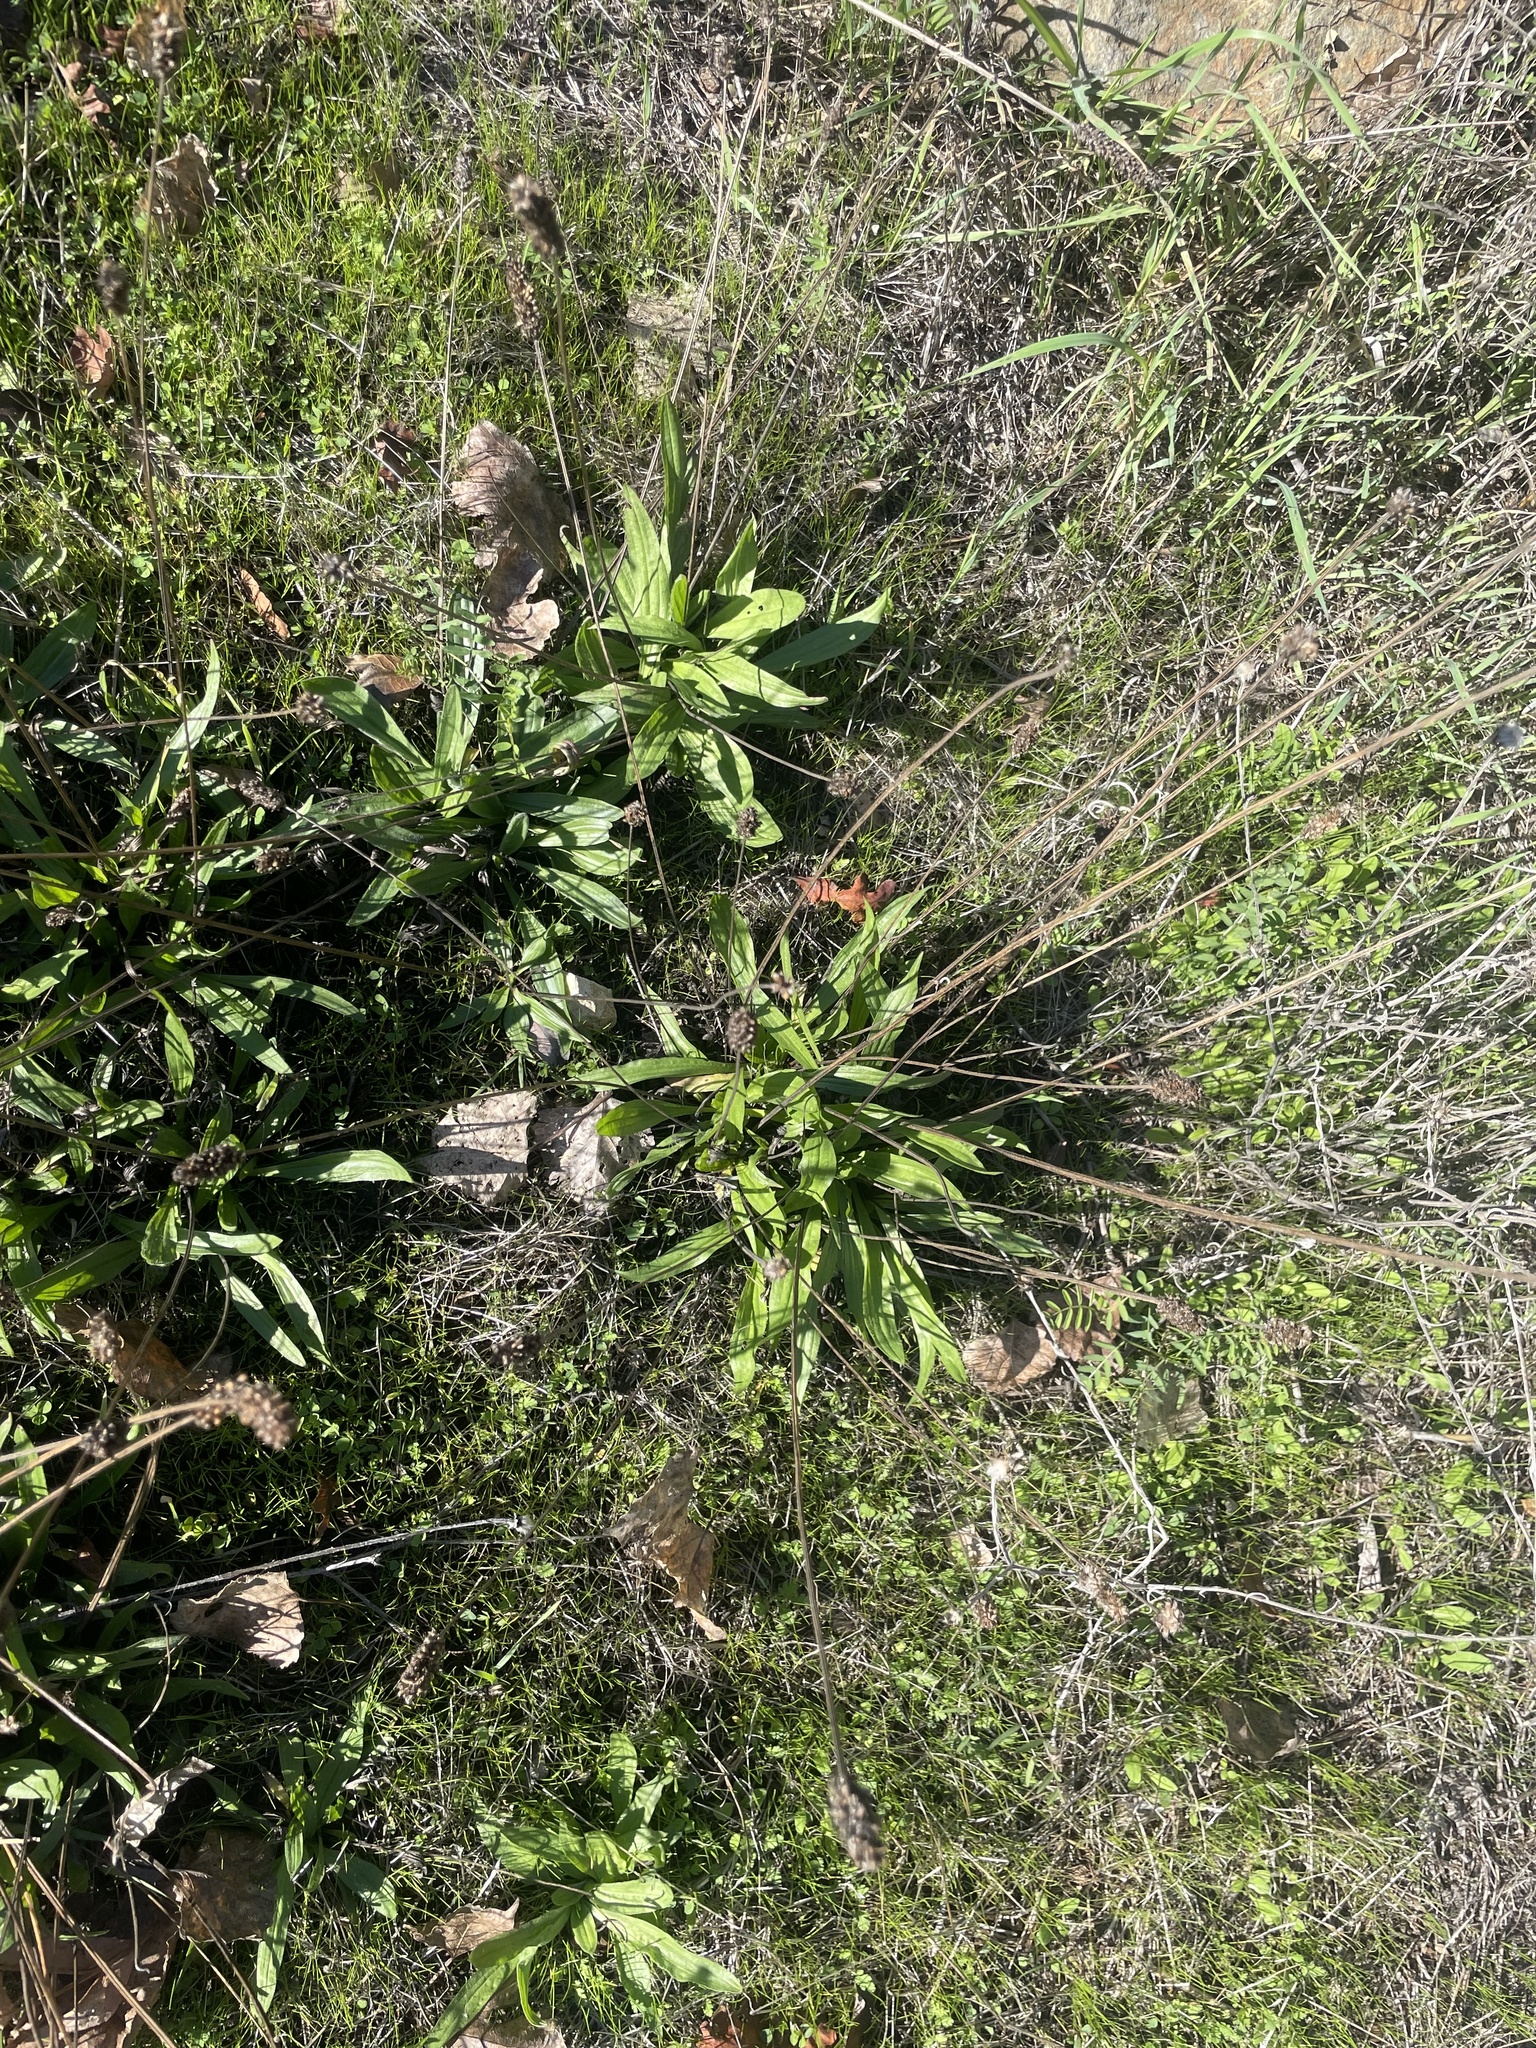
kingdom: Plantae
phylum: Tracheophyta
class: Magnoliopsida
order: Lamiales
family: Plantaginaceae
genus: Plantago
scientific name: Plantago lanceolata
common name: Ribwort plantain
